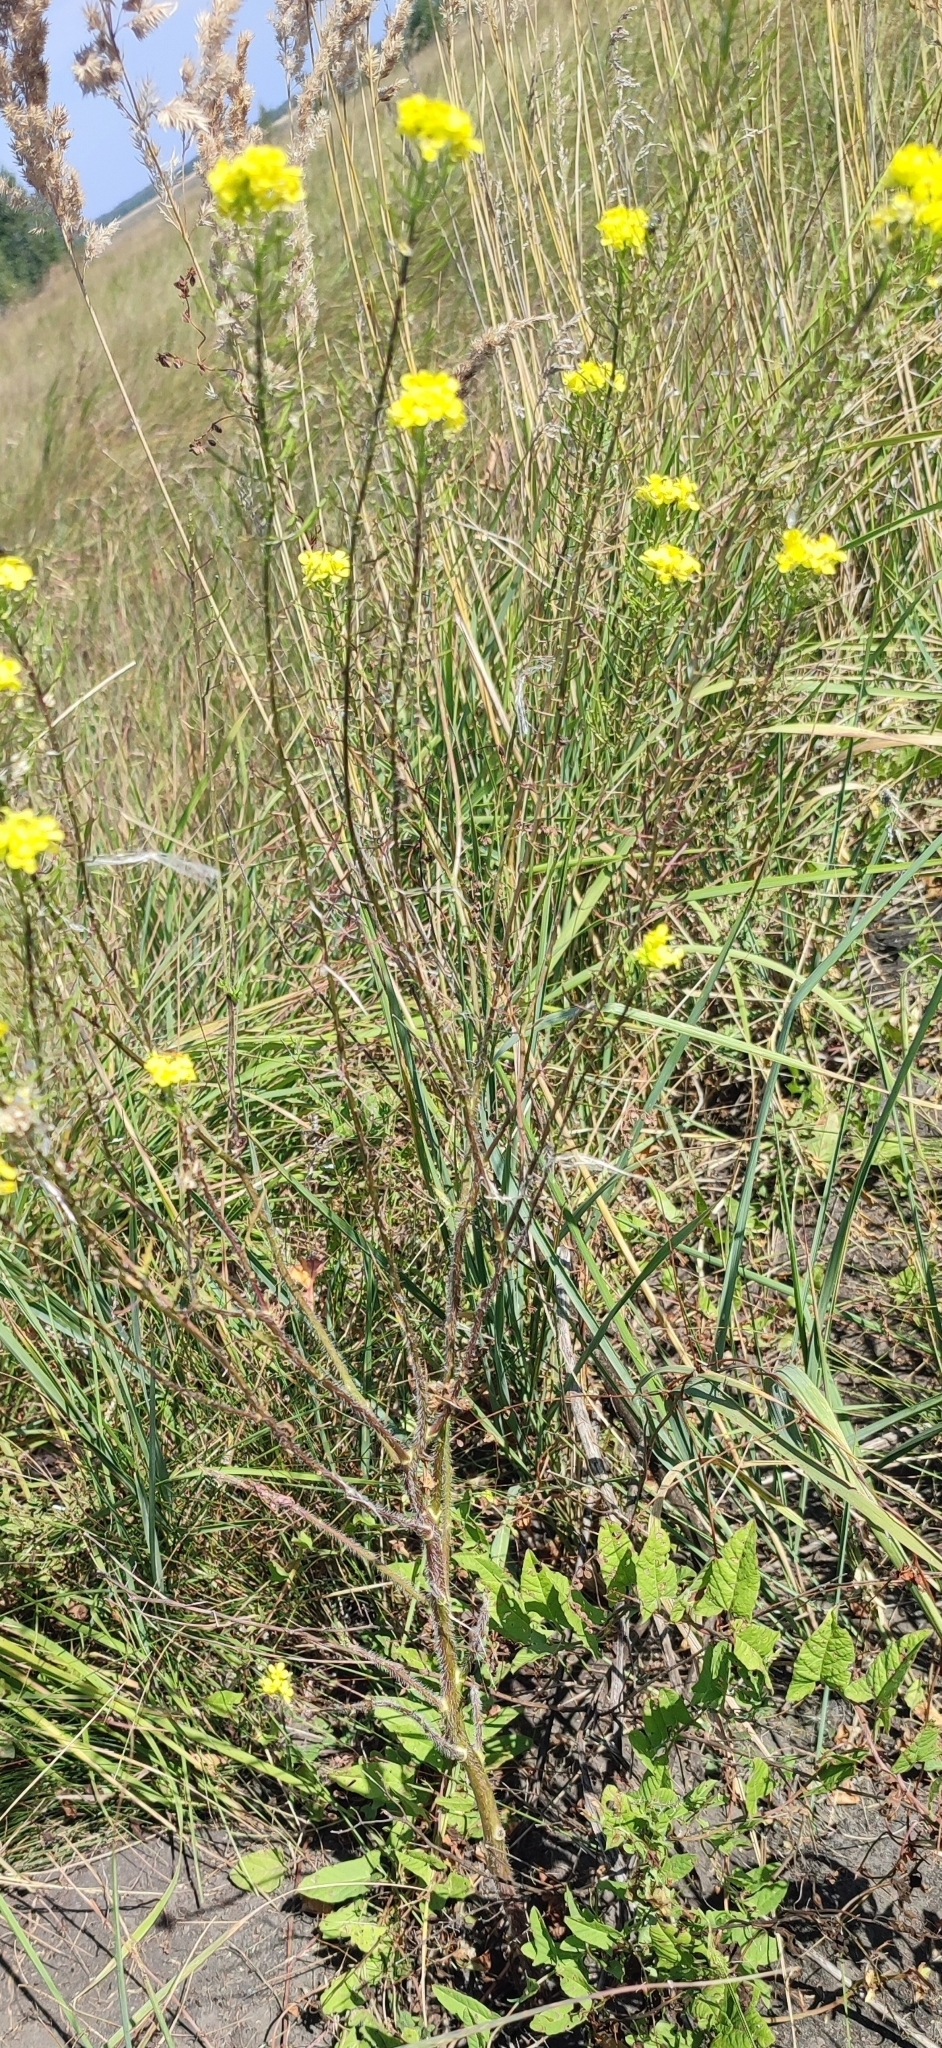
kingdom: Plantae
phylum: Tracheophyta
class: Magnoliopsida
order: Brassicales
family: Brassicaceae
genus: Sisymbrium
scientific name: Sisymbrium loeselii
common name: False london-rocket
